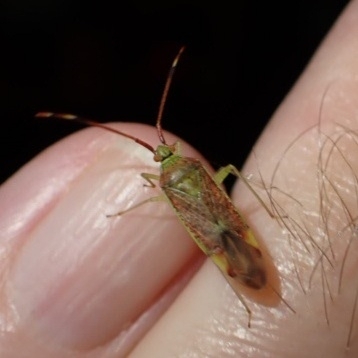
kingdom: Animalia
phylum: Arthropoda
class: Insecta
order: Hemiptera
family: Miridae
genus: Pantilius
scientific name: Pantilius tunicatus
